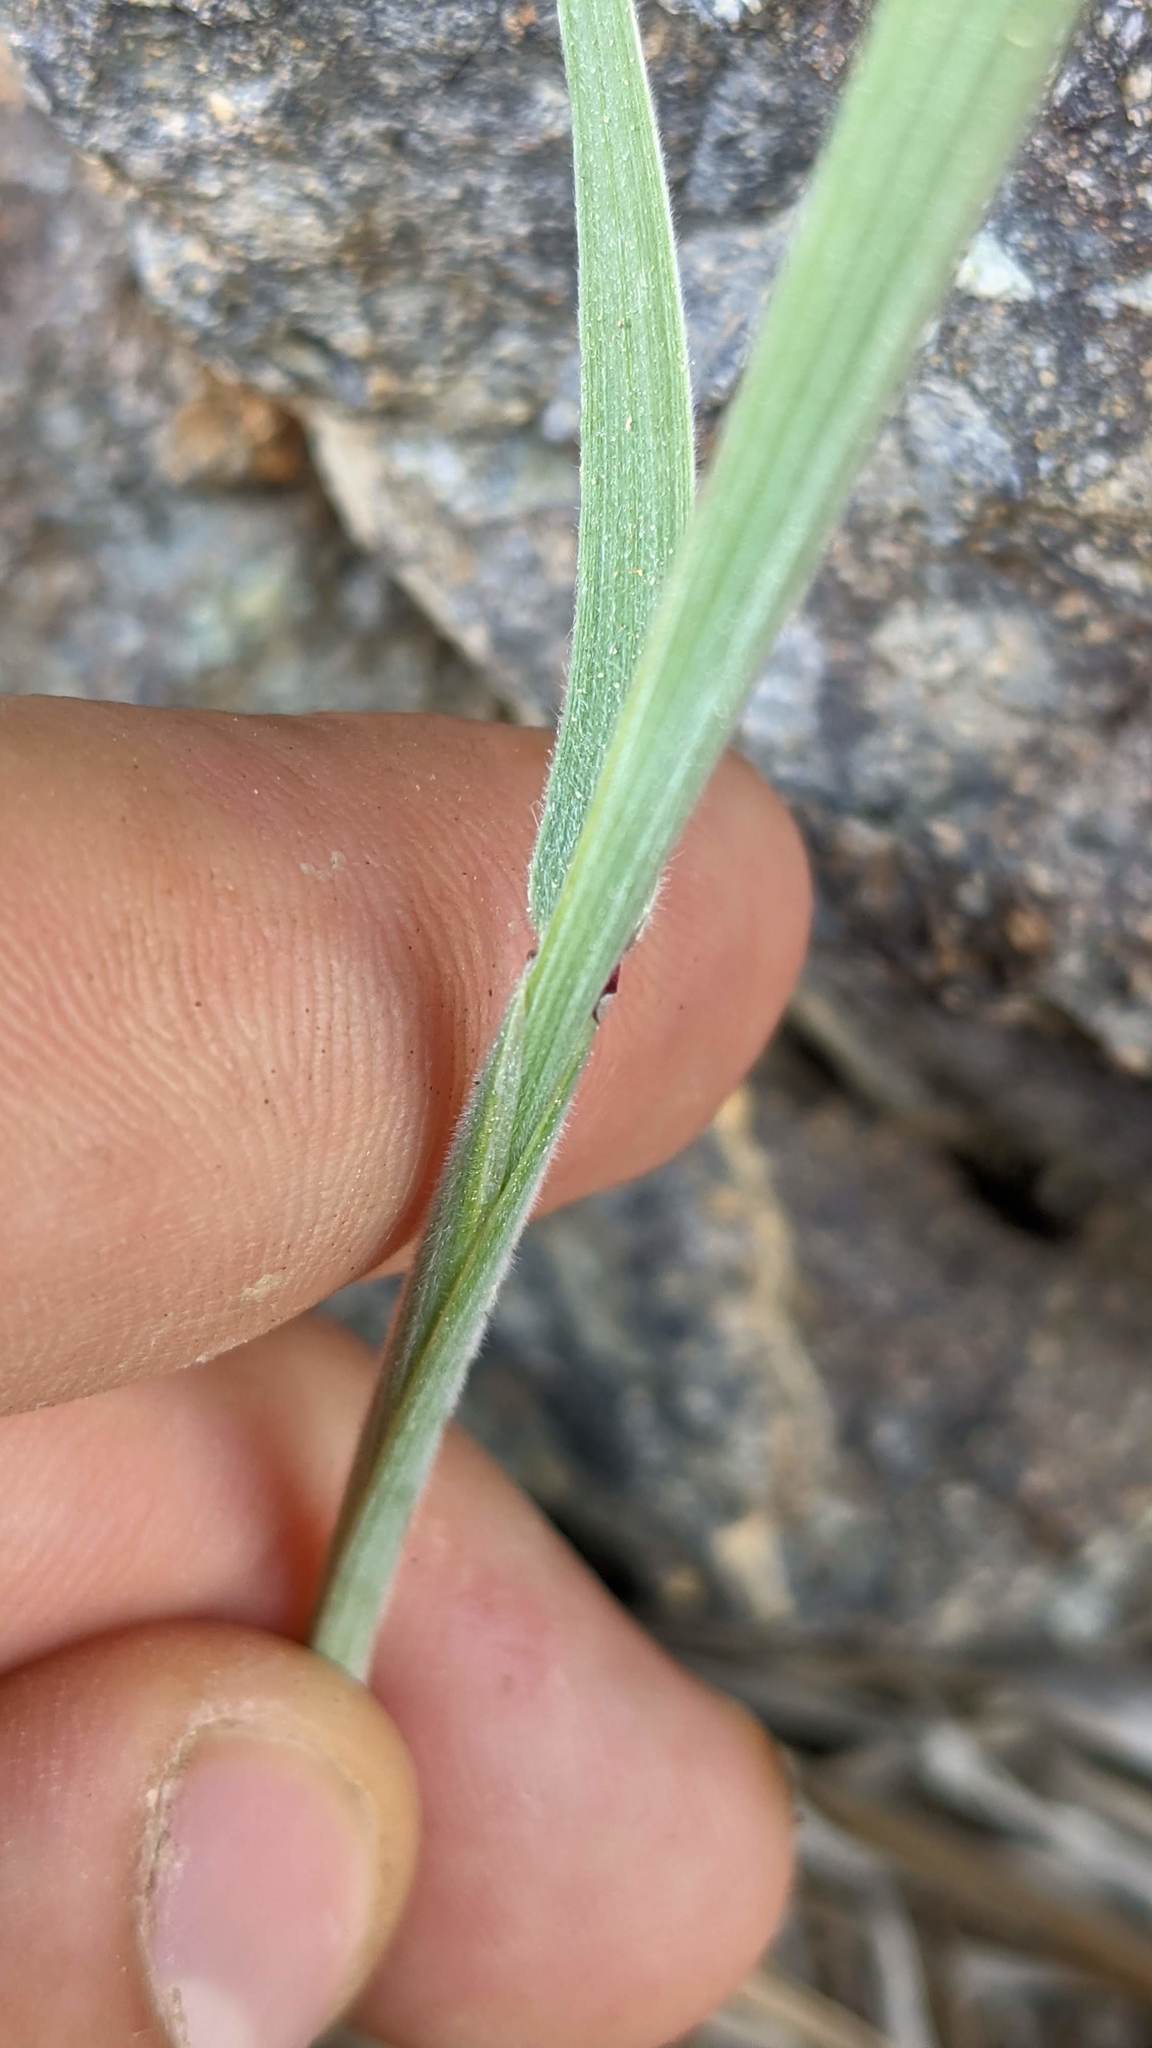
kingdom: Plantae
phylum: Tracheophyta
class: Liliopsida
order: Poales
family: Poaceae
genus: Elymus
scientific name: Elymus elymoides
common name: Bottlebrush squirreltail
